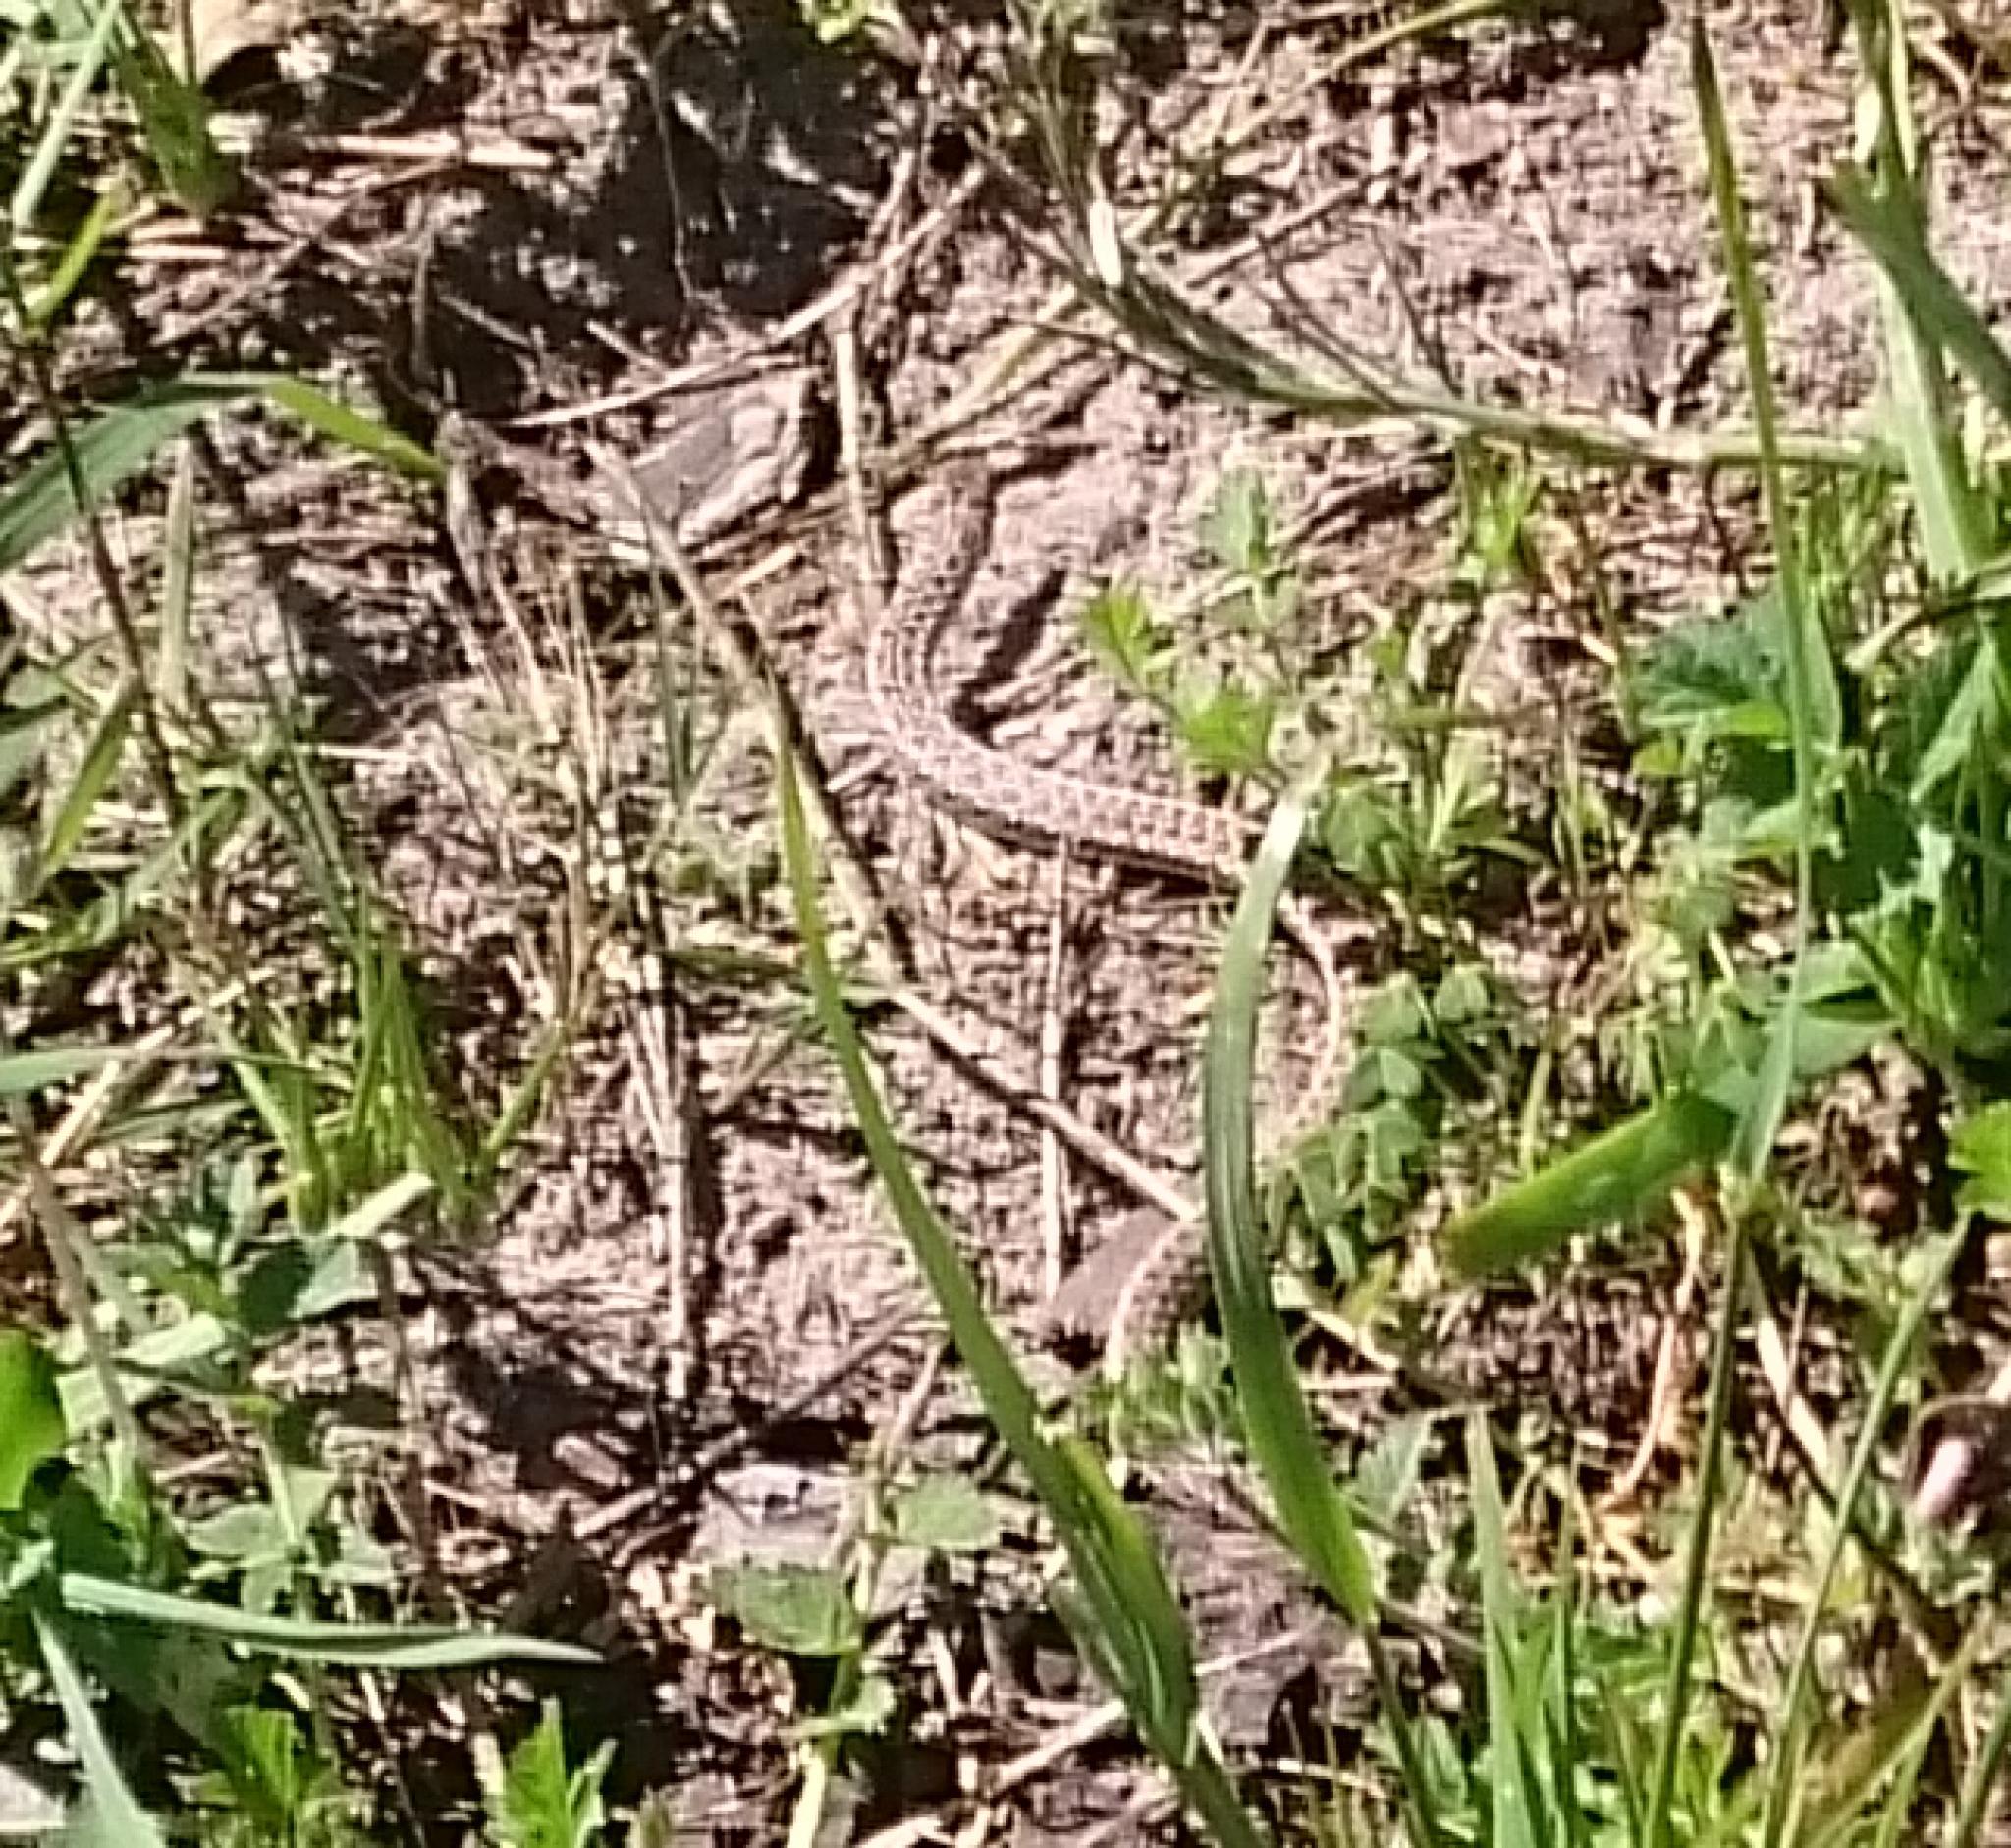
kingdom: Animalia
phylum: Chordata
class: Squamata
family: Pseudaspididae
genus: Pseudaspis
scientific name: Pseudaspis cana
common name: Mole snake
